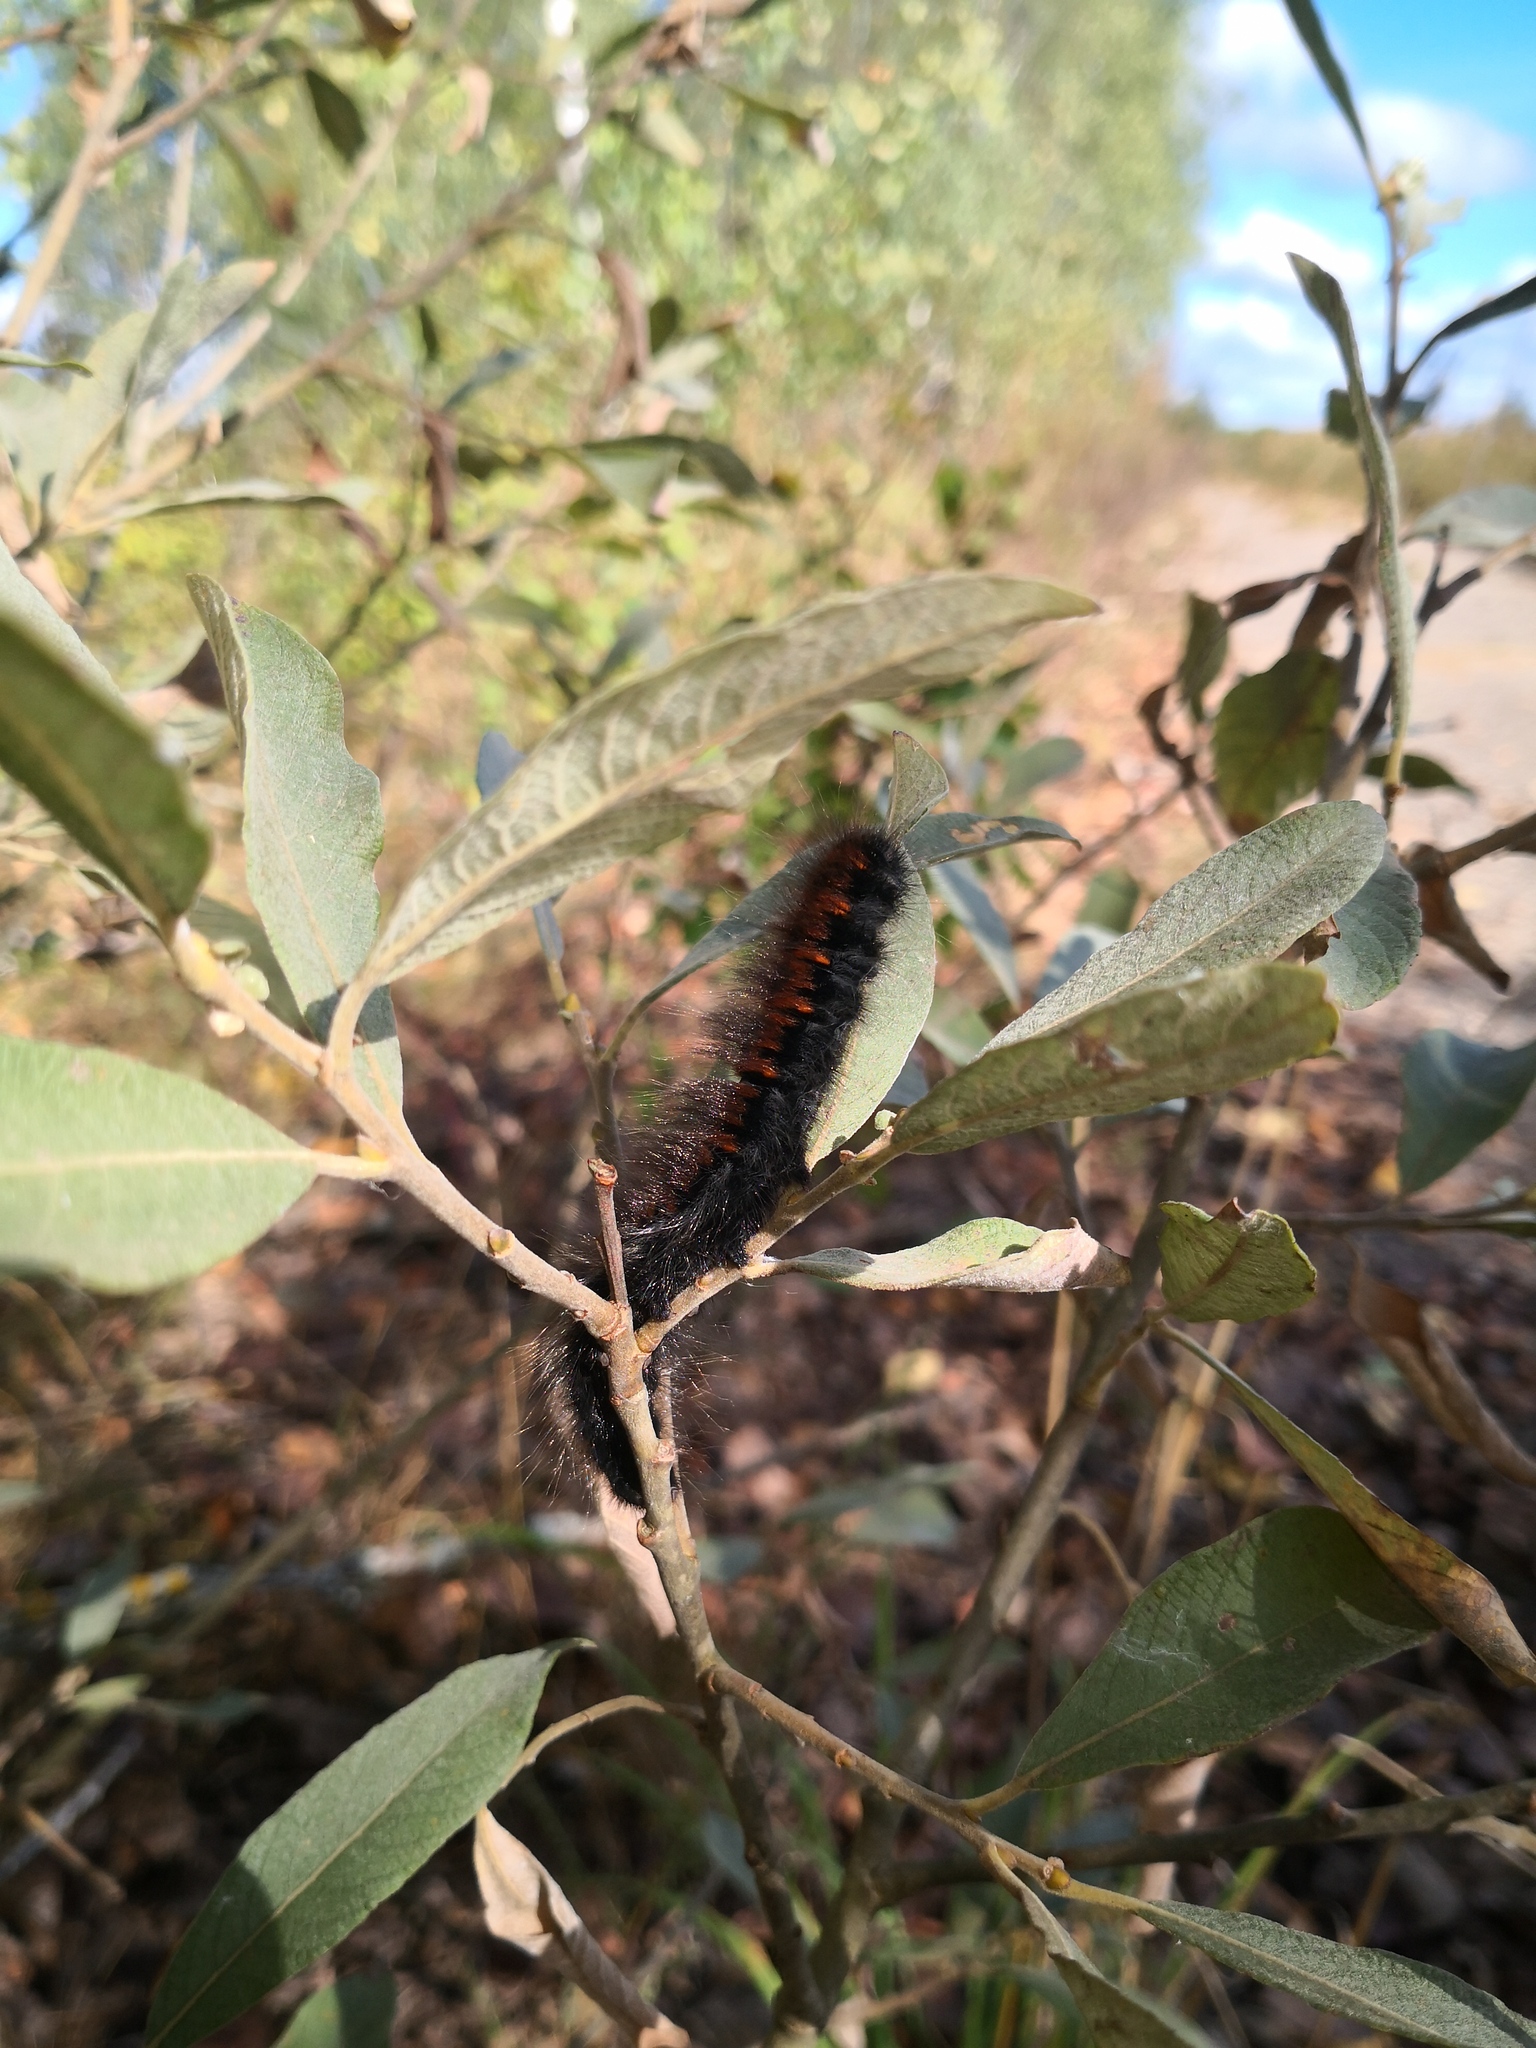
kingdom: Animalia
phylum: Arthropoda
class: Insecta
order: Lepidoptera
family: Lasiocampidae
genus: Macrothylacia
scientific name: Macrothylacia rubi
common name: Fox moth
